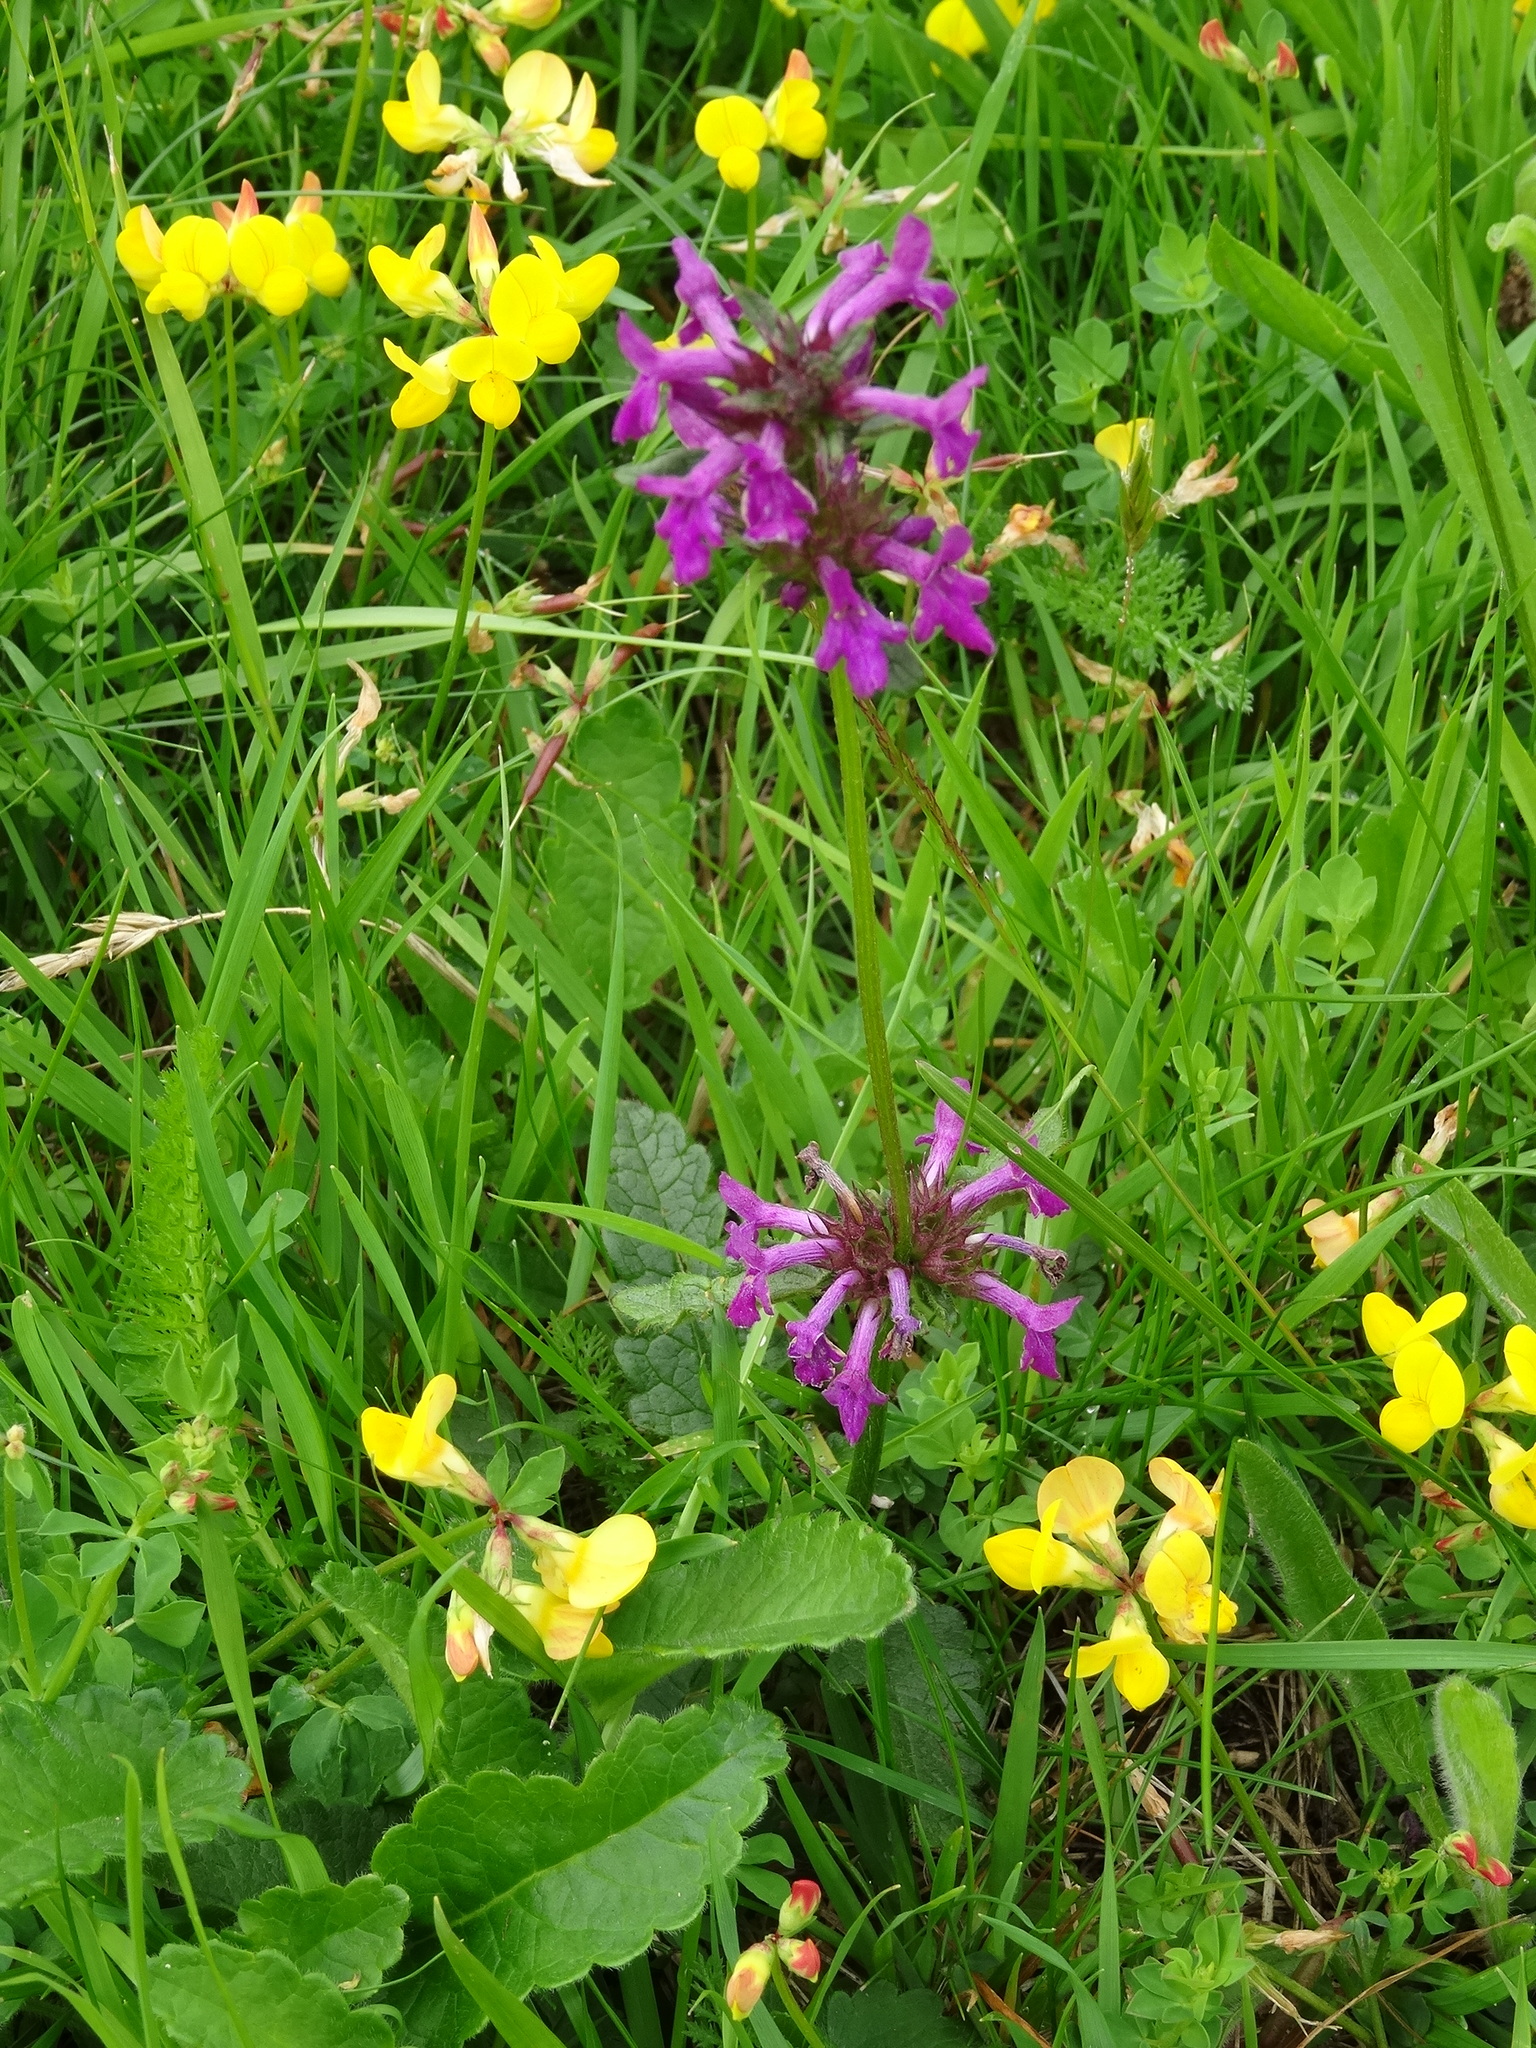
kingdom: Plantae
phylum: Tracheophyta
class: Magnoliopsida
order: Lamiales
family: Lamiaceae
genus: Betonica
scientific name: Betonica officinalis
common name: Bishop's-wort
